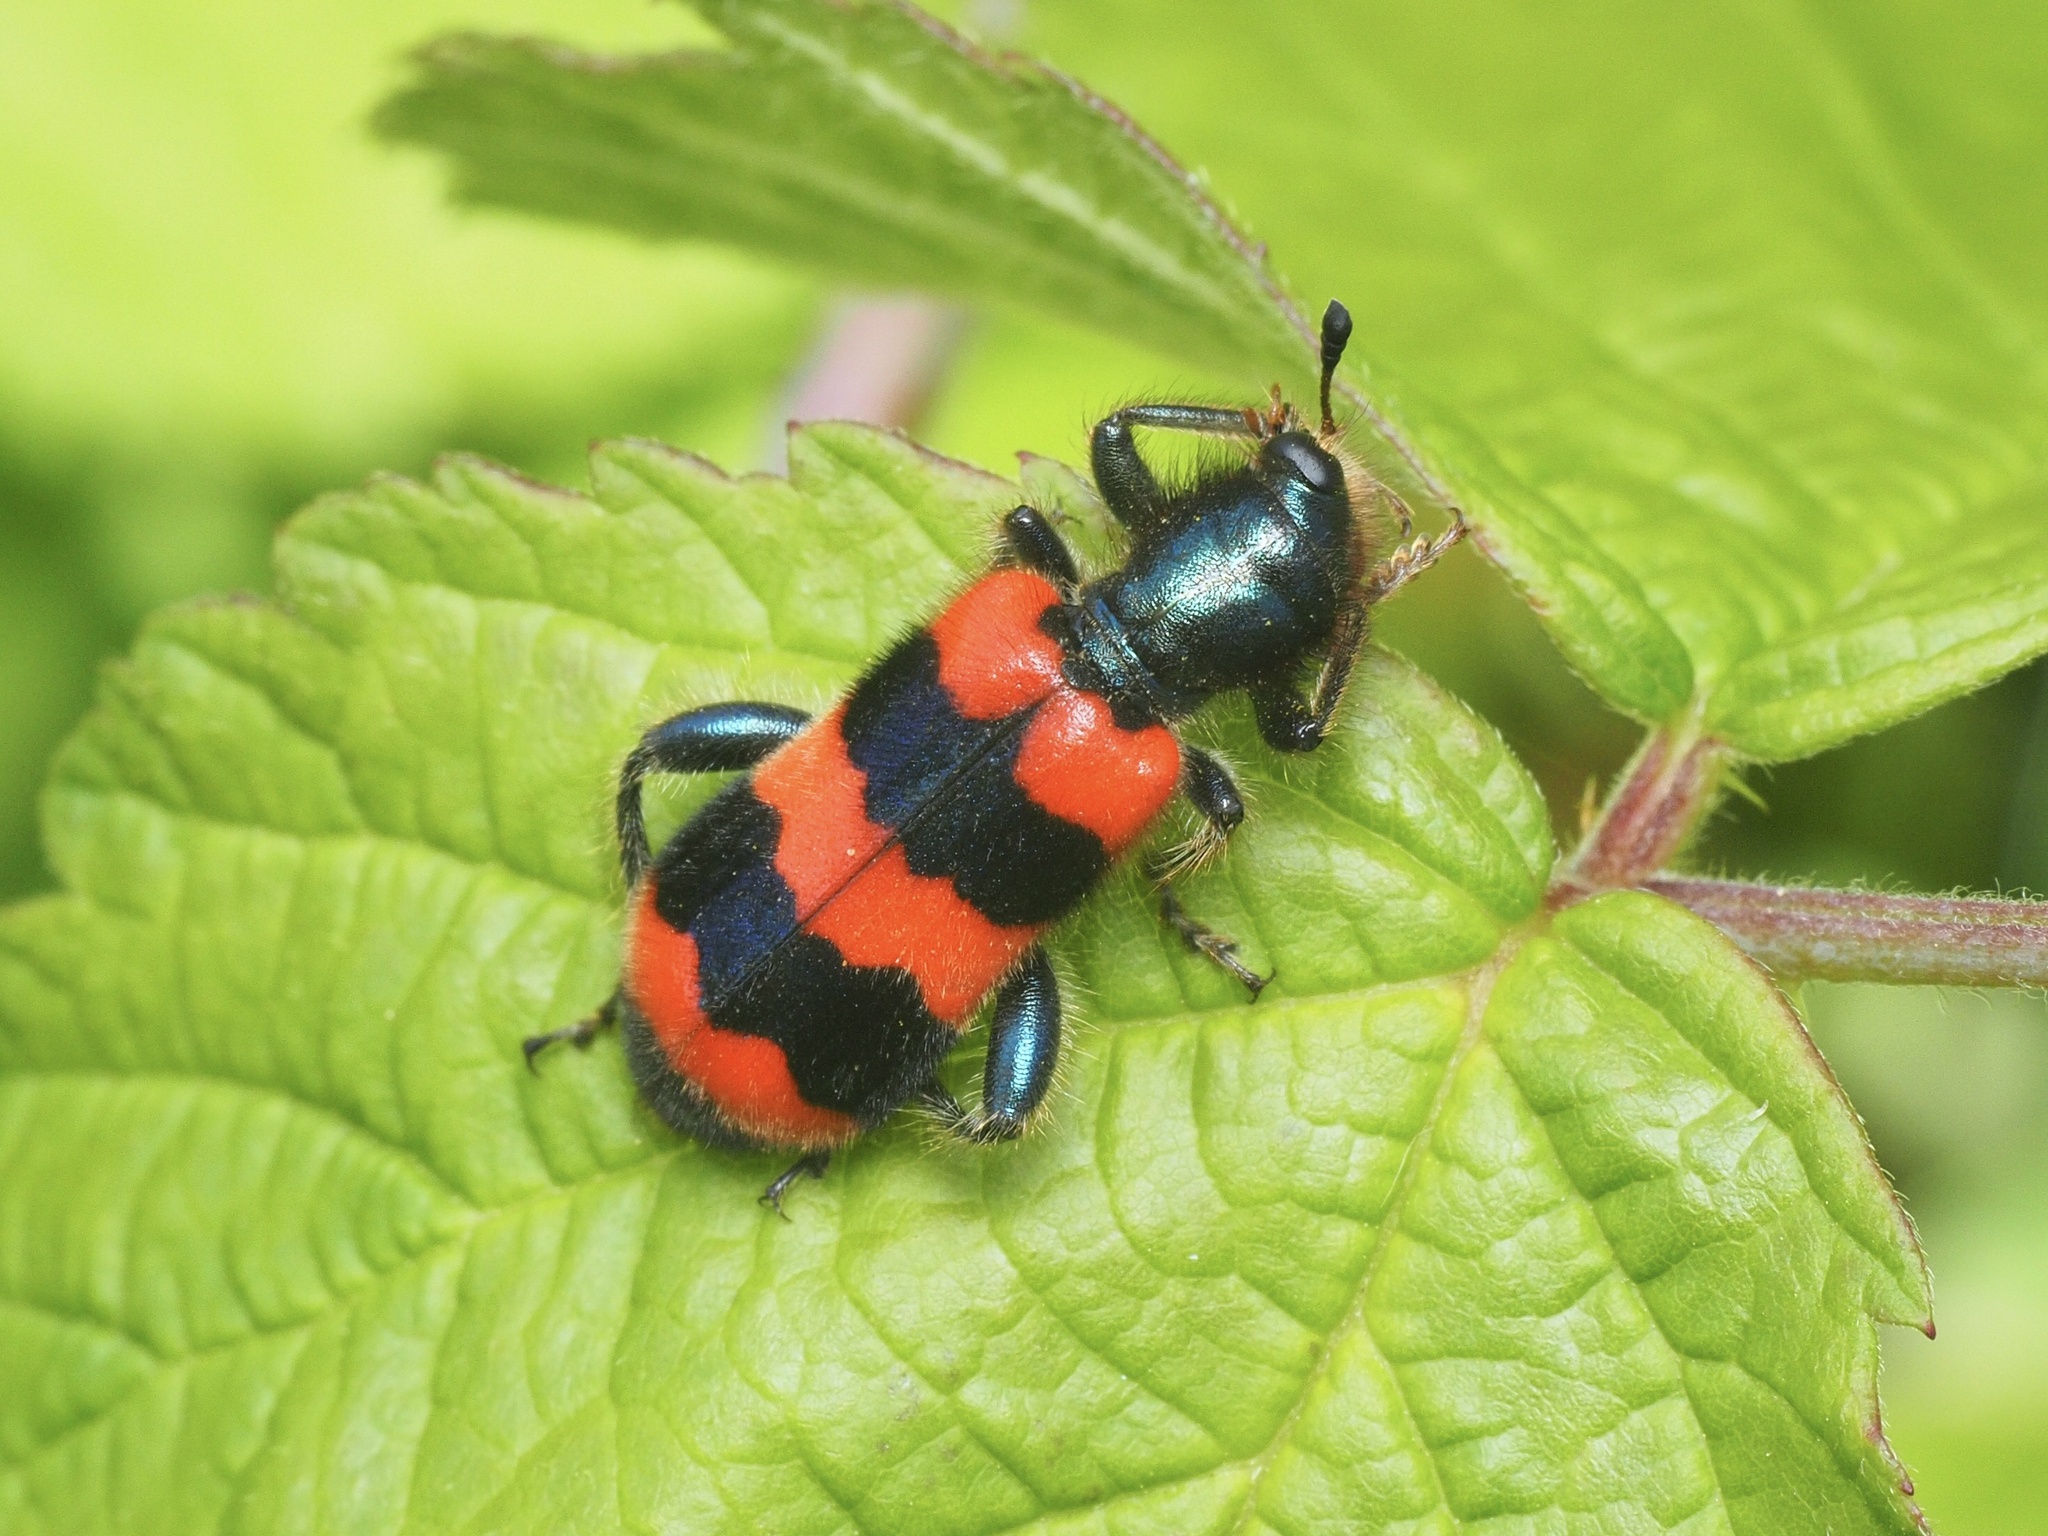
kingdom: Animalia
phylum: Arthropoda
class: Insecta
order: Coleoptera
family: Cleridae
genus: Trichodes
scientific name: Trichodes apiarius
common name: Bee-eating beetle
